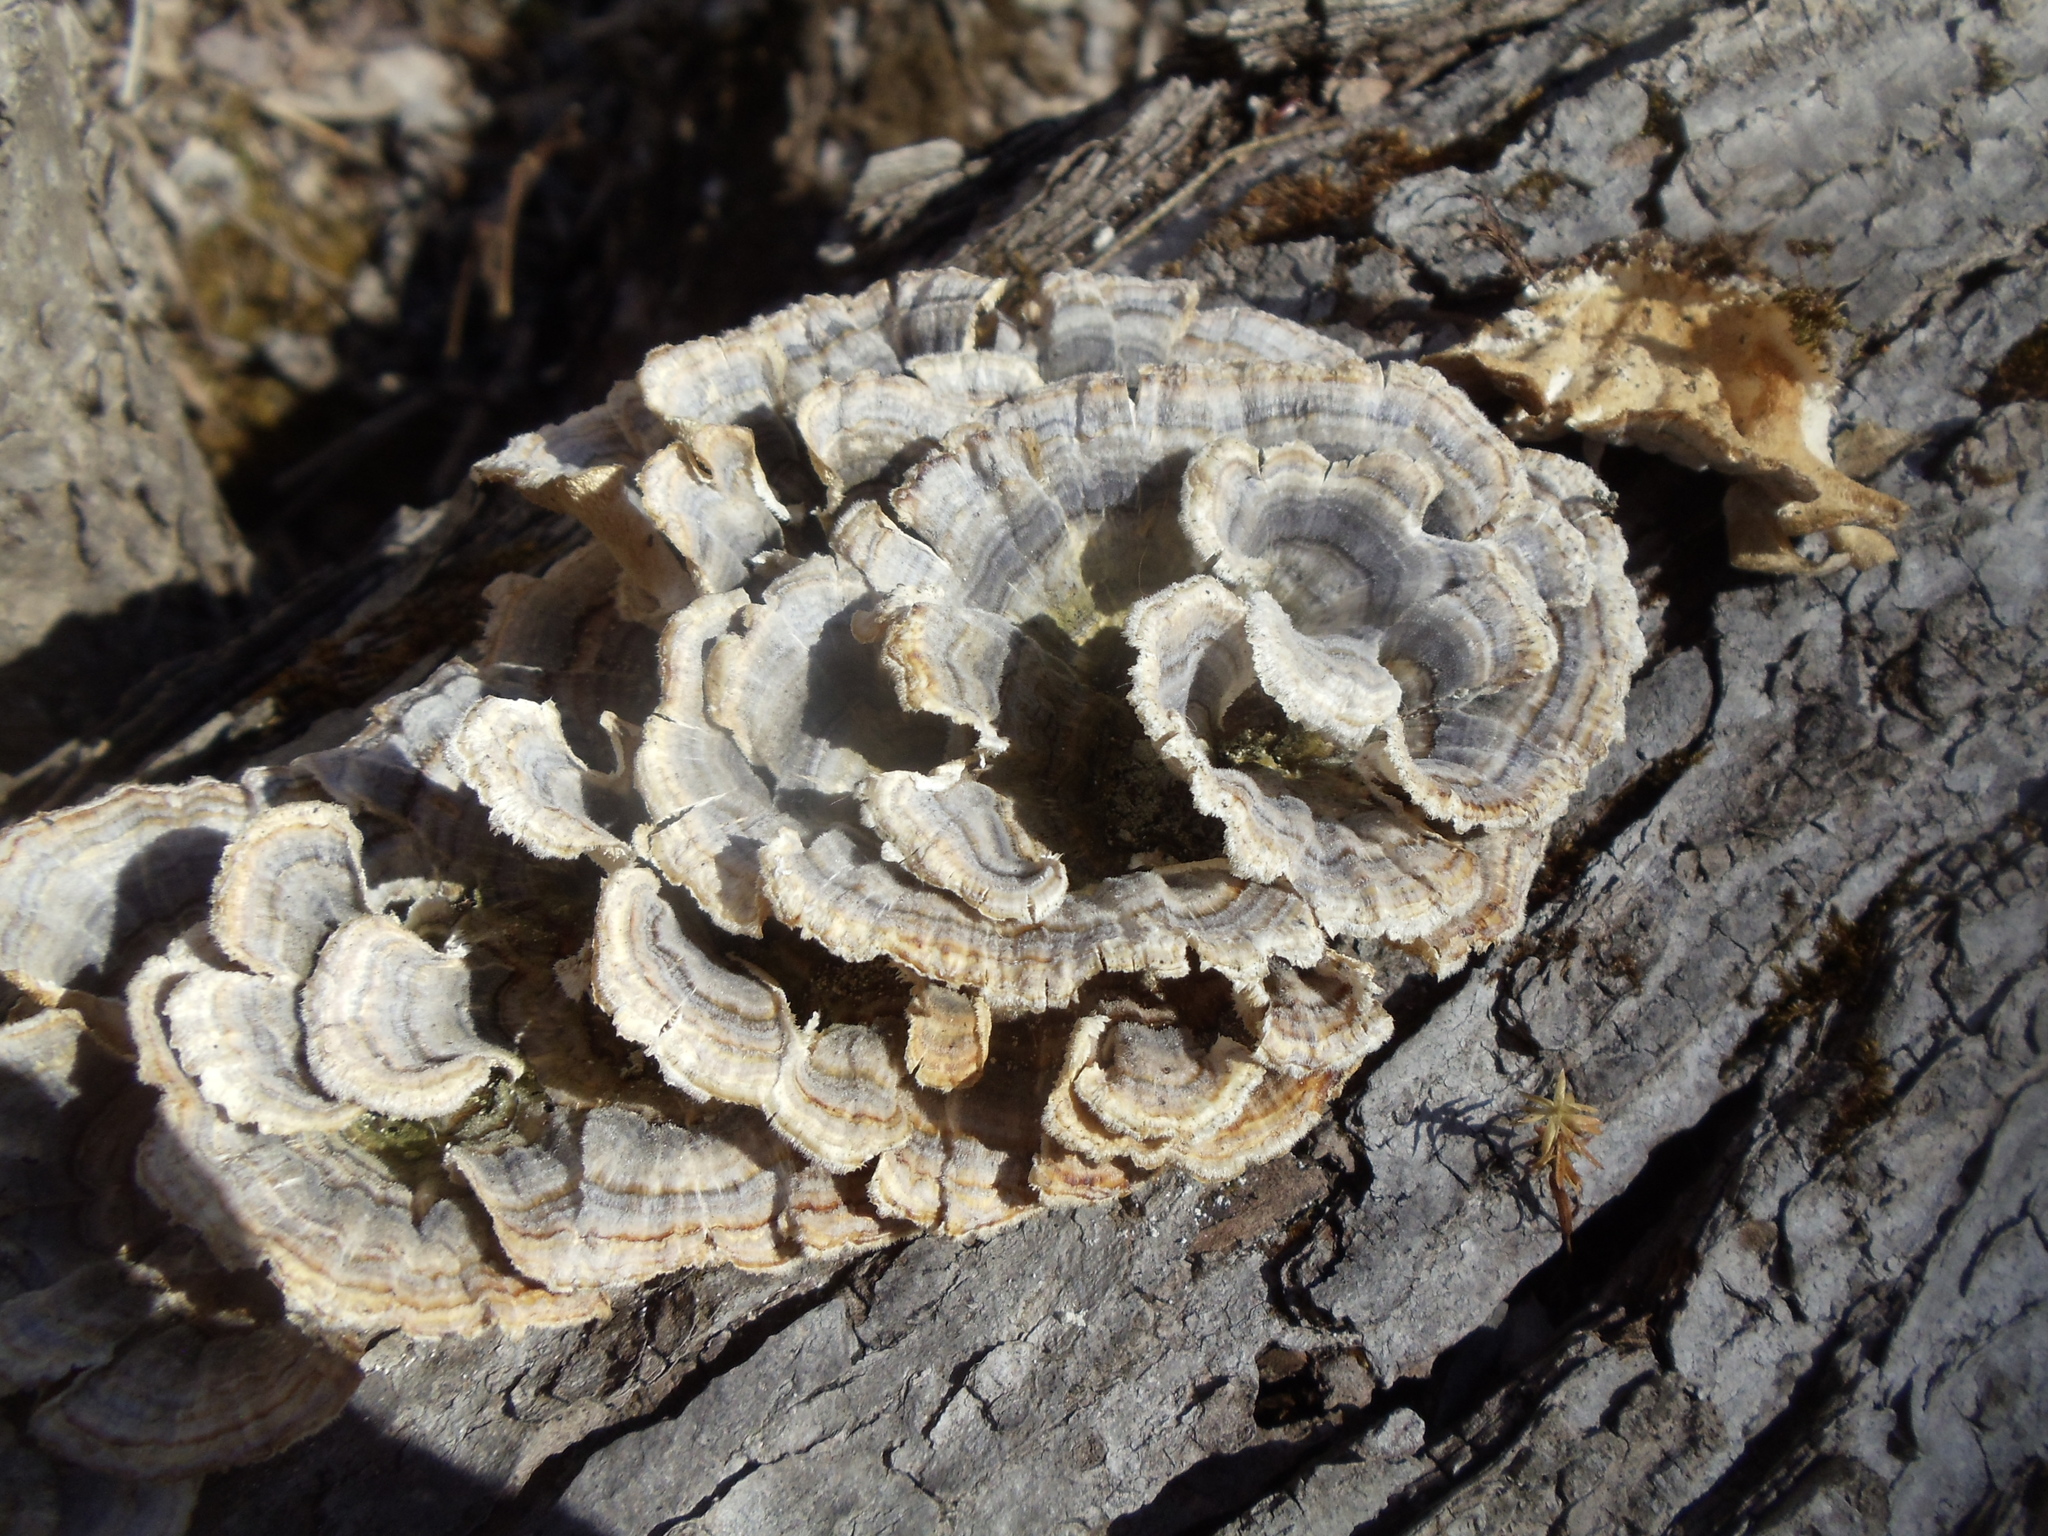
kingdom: Fungi
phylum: Basidiomycota
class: Agaricomycetes
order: Polyporales
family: Polyporaceae
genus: Trametes
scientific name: Trametes versicolor
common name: Turkeytail
